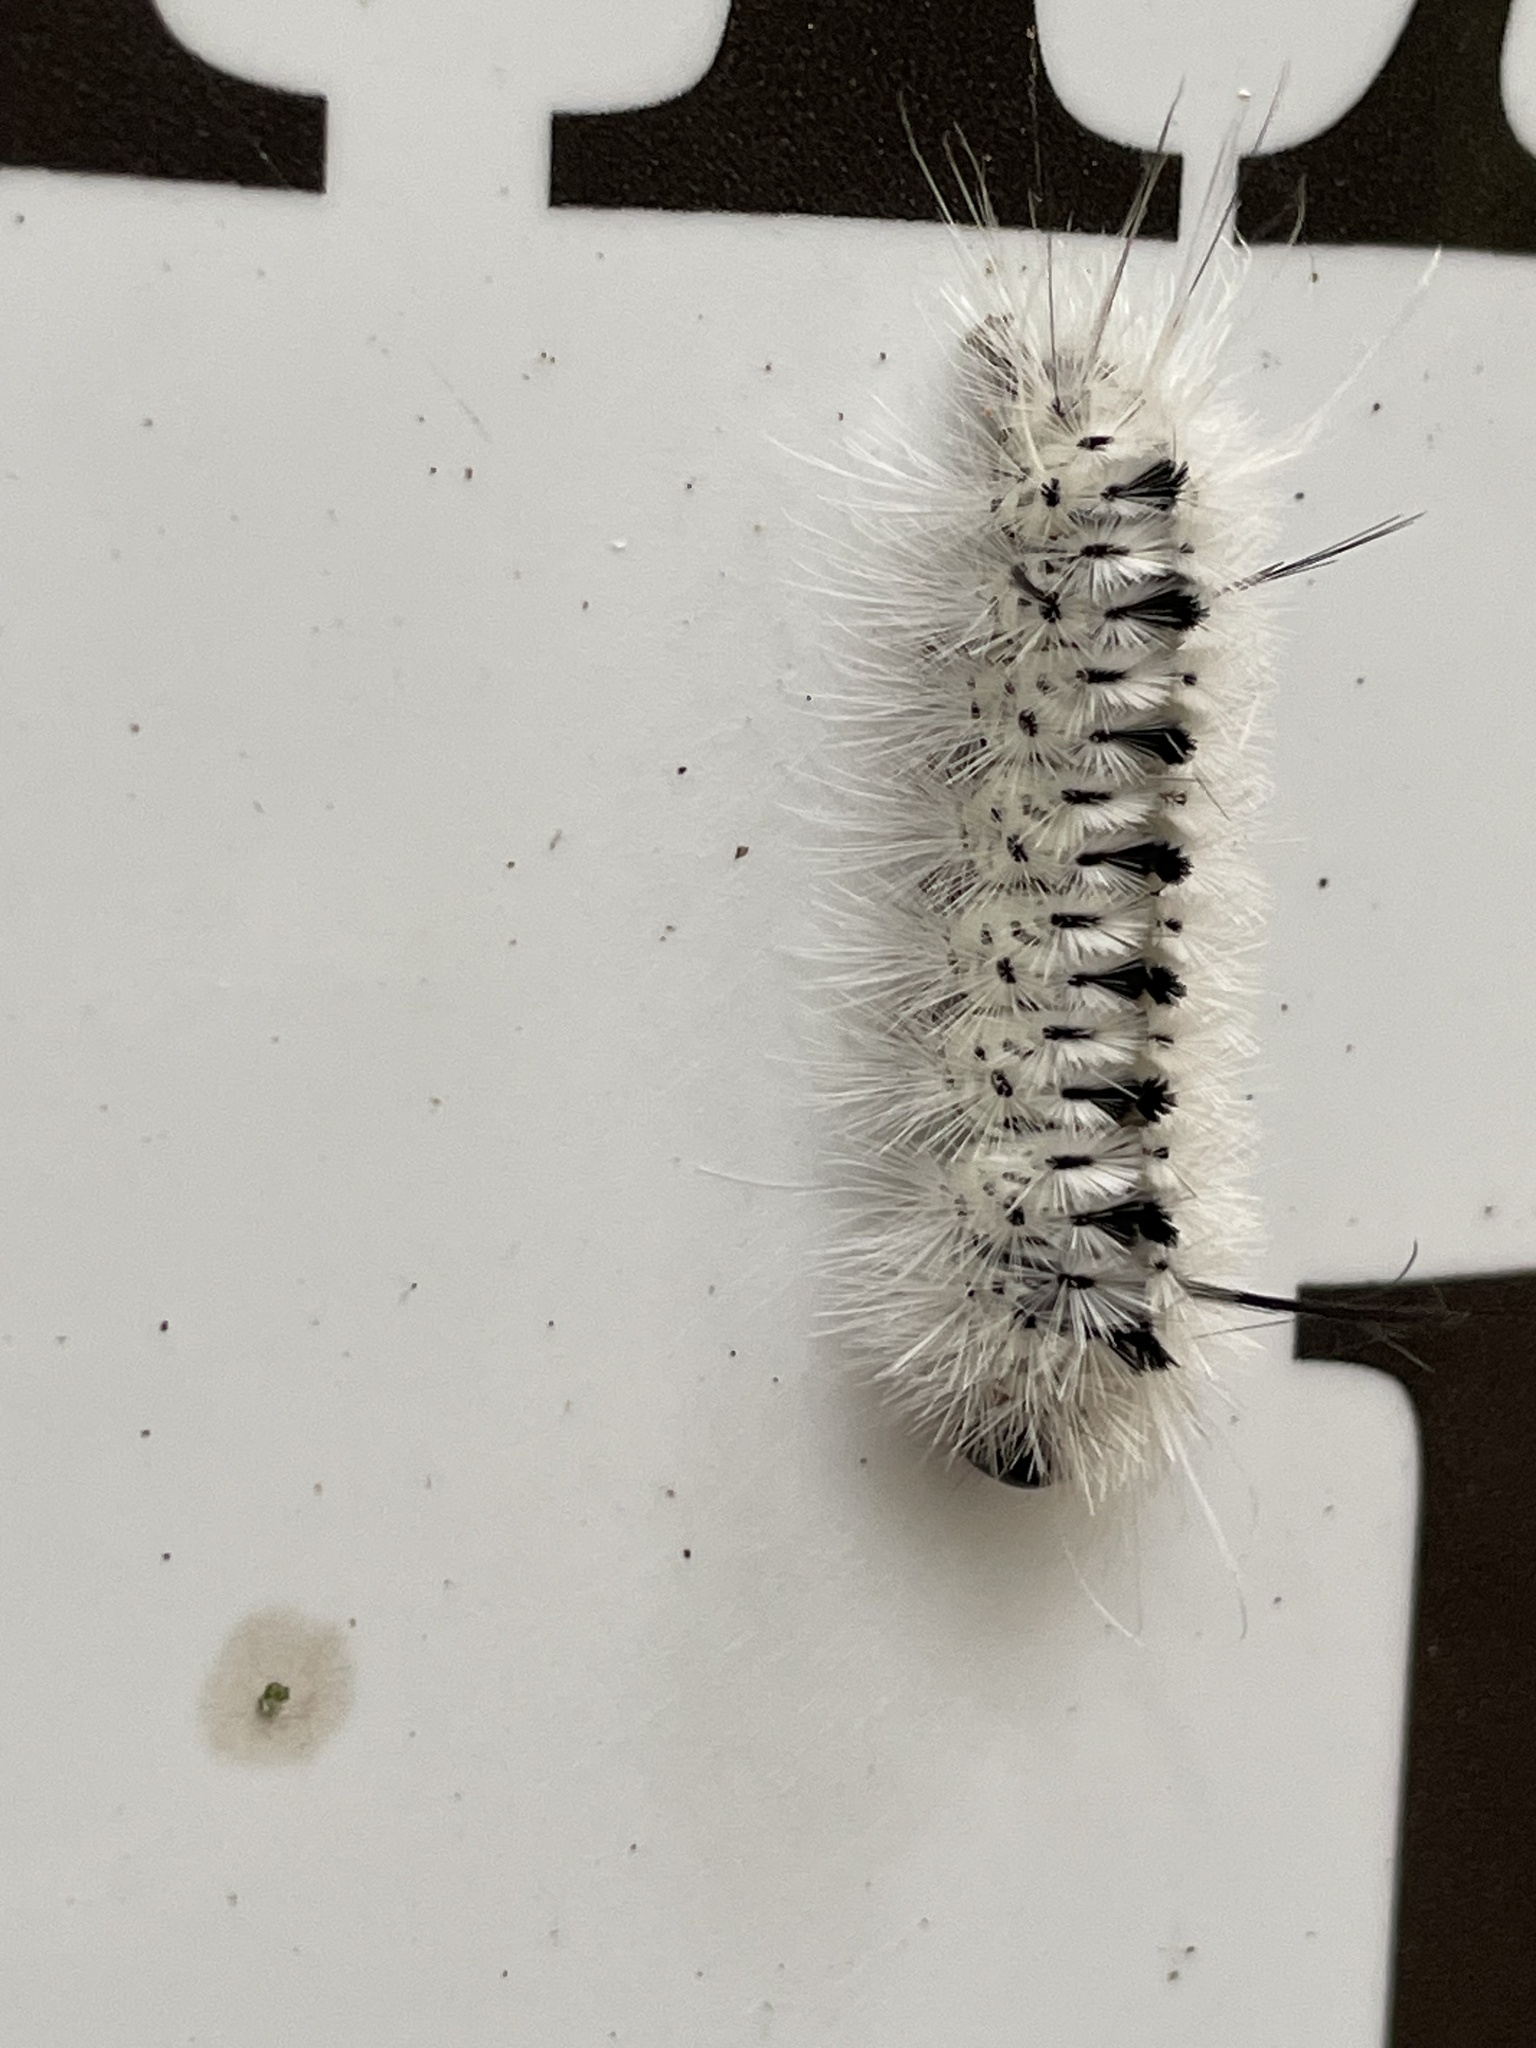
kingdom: Animalia
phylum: Arthropoda
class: Insecta
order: Lepidoptera
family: Erebidae
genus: Lophocampa
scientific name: Lophocampa caryae
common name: Hickory tussock moth
